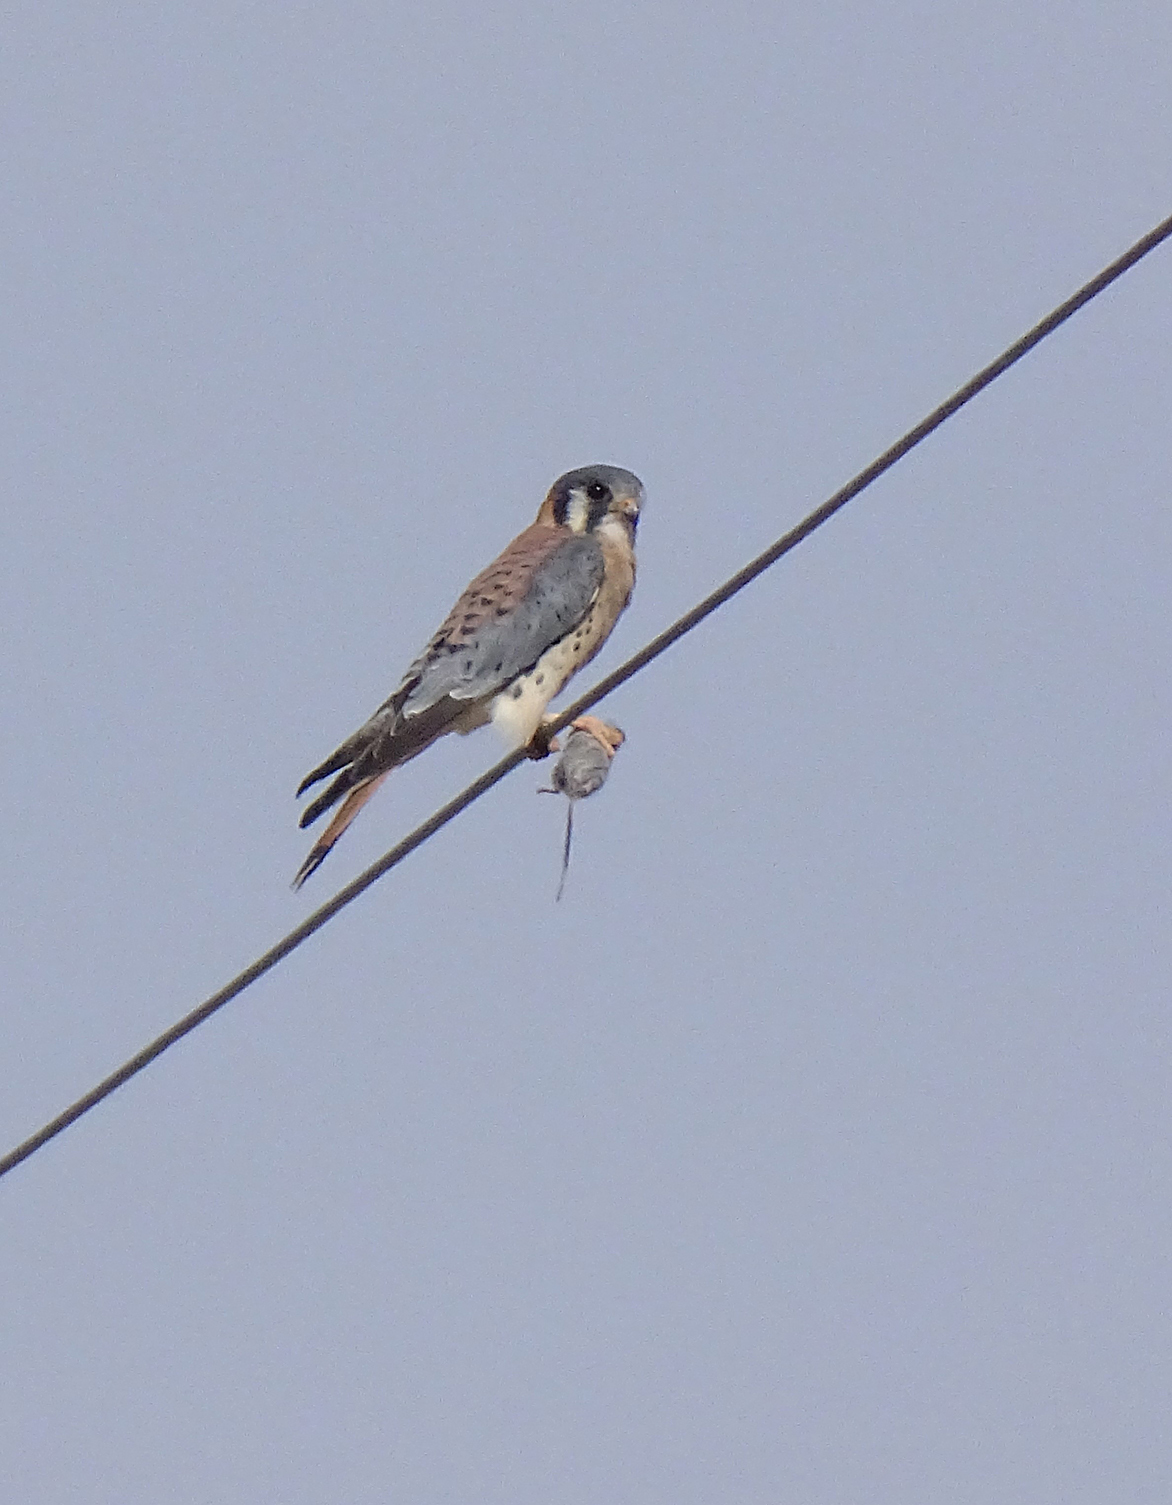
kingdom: Animalia
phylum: Chordata
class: Aves
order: Falconiformes
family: Falconidae
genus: Falco
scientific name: Falco sparverius
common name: American kestrel
